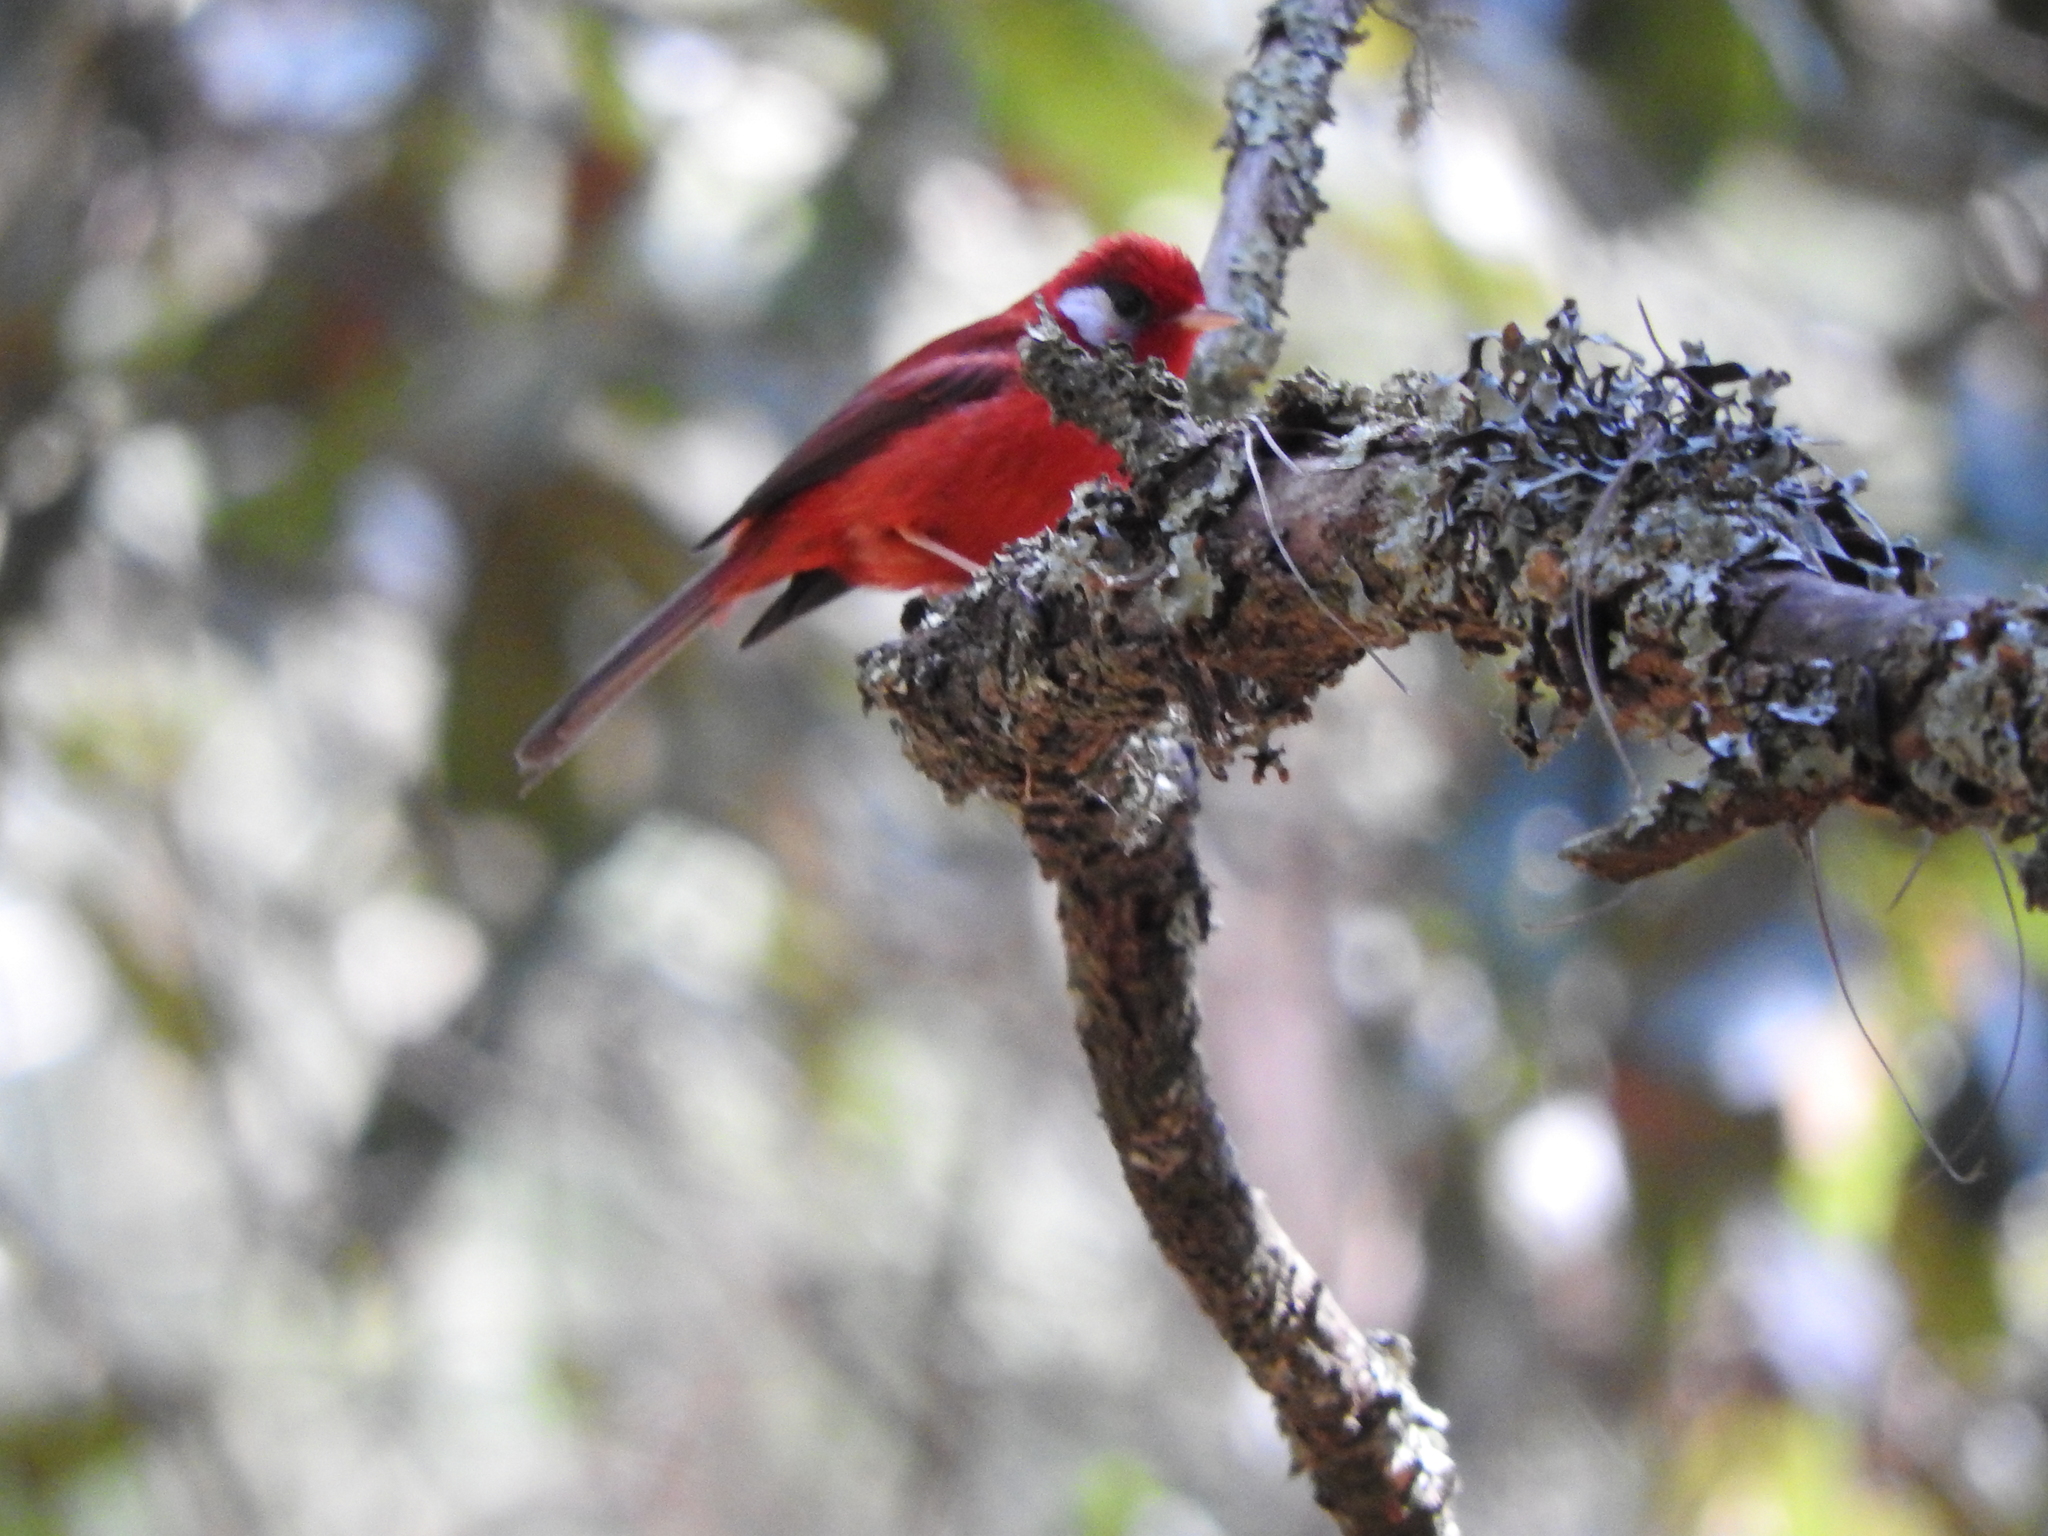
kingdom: Animalia
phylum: Chordata
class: Aves
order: Passeriformes
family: Parulidae
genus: Cardellina
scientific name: Cardellina rubra
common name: Red warbler
